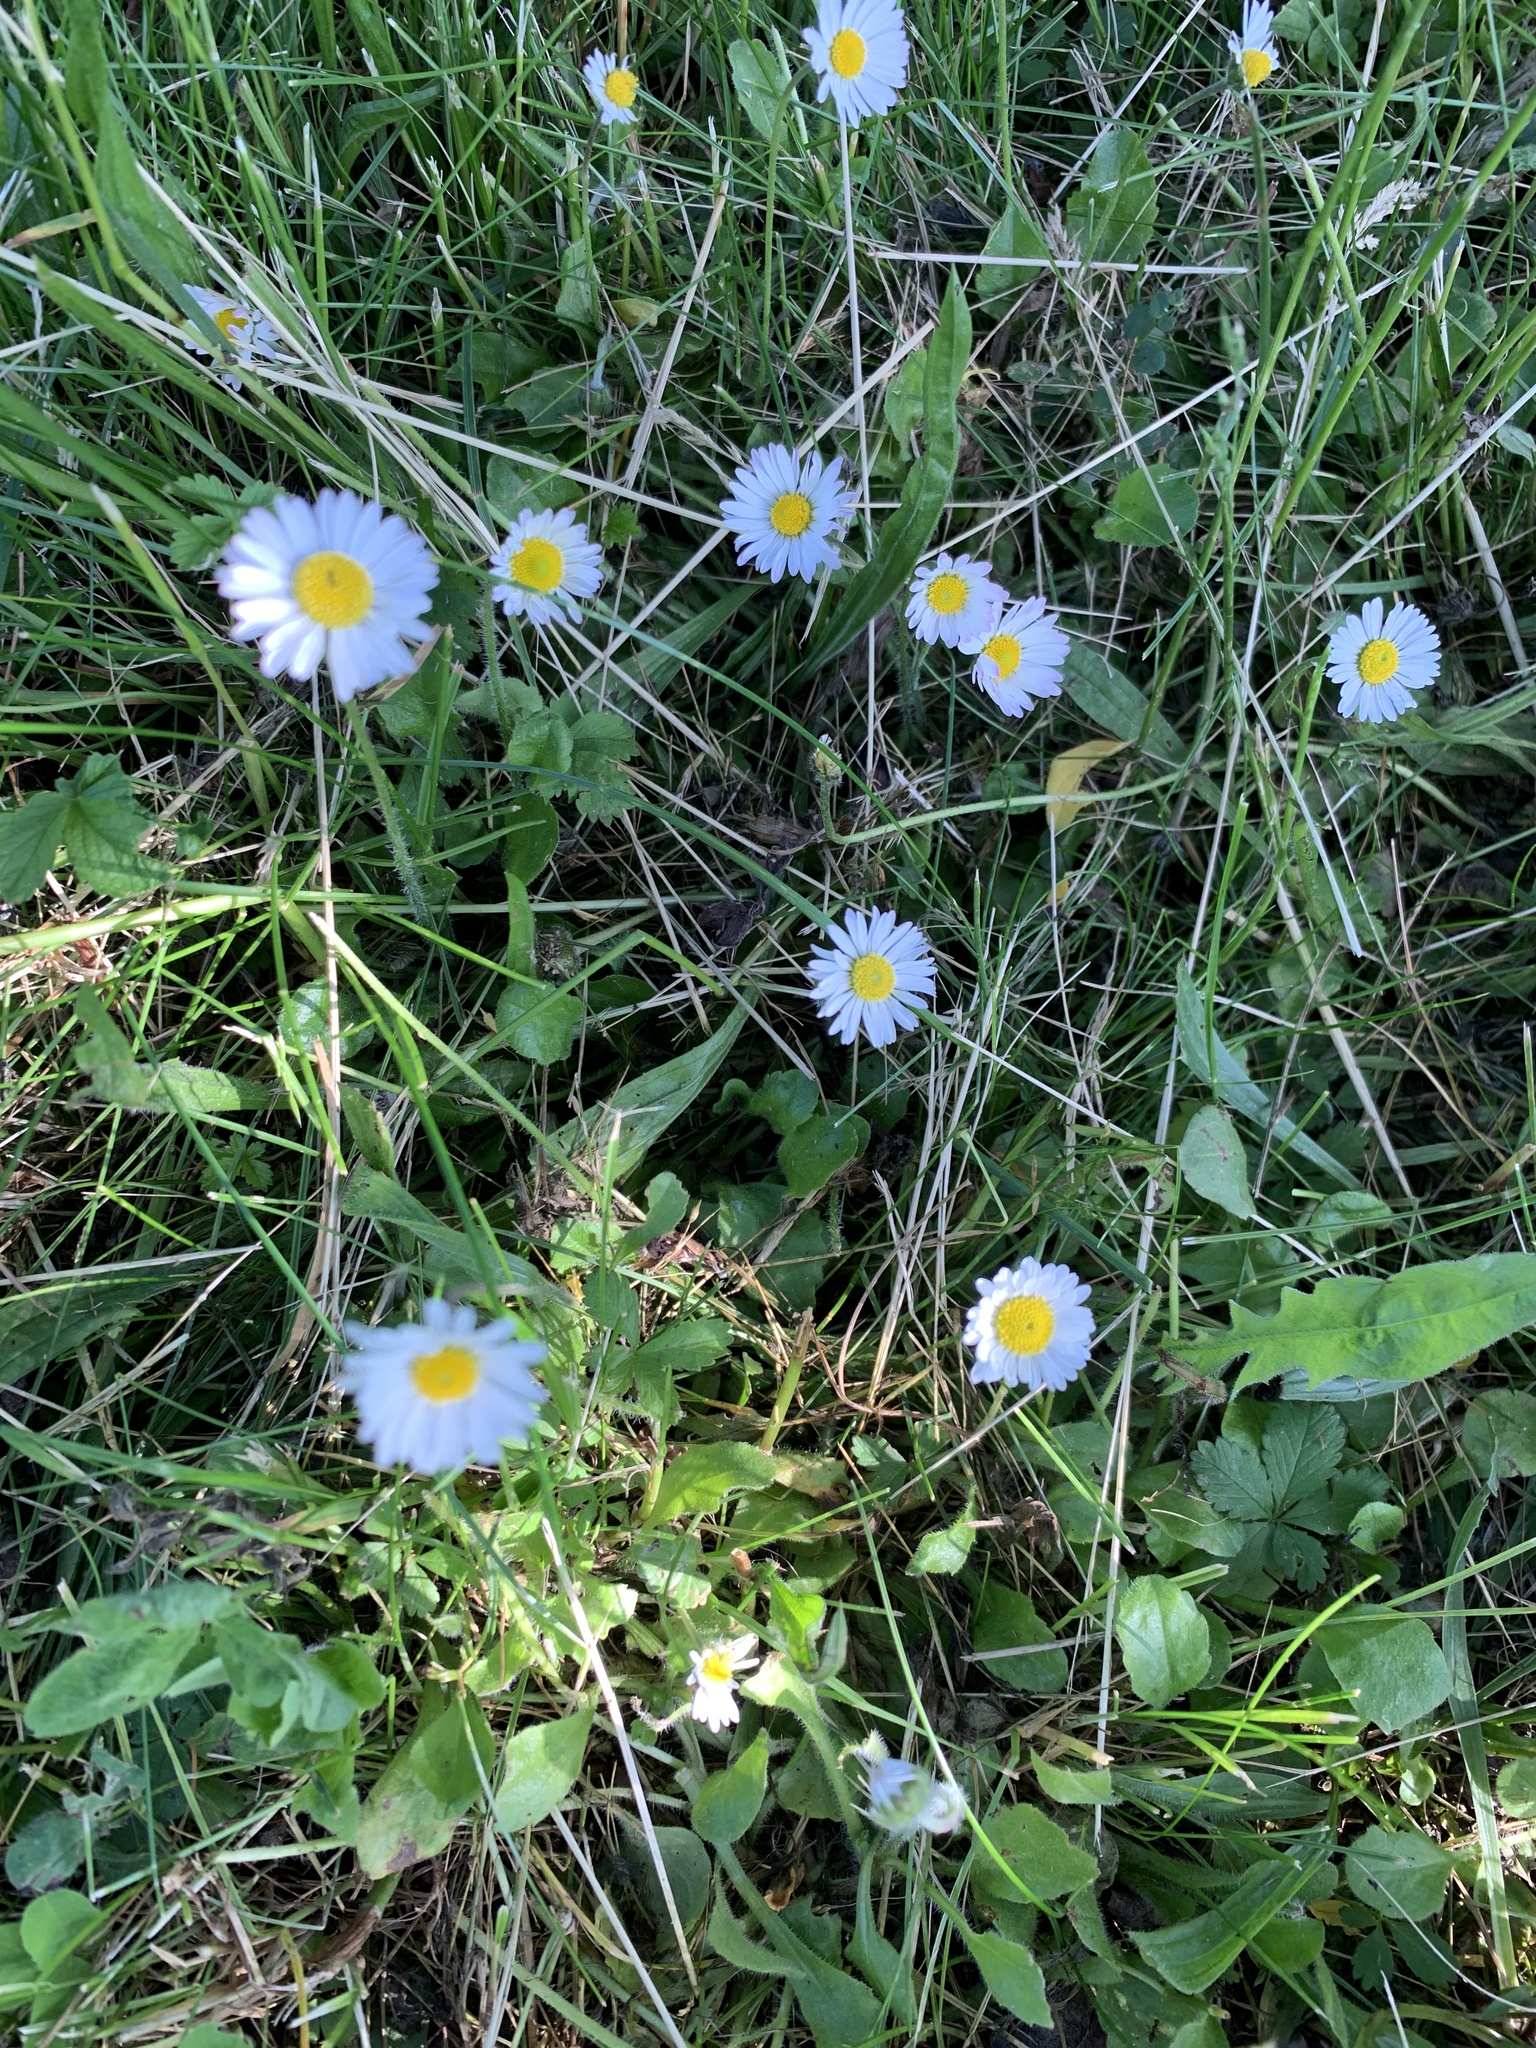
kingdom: Plantae
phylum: Tracheophyta
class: Magnoliopsida
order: Asterales
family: Asteraceae
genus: Bellis
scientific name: Bellis perennis
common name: Lawndaisy
